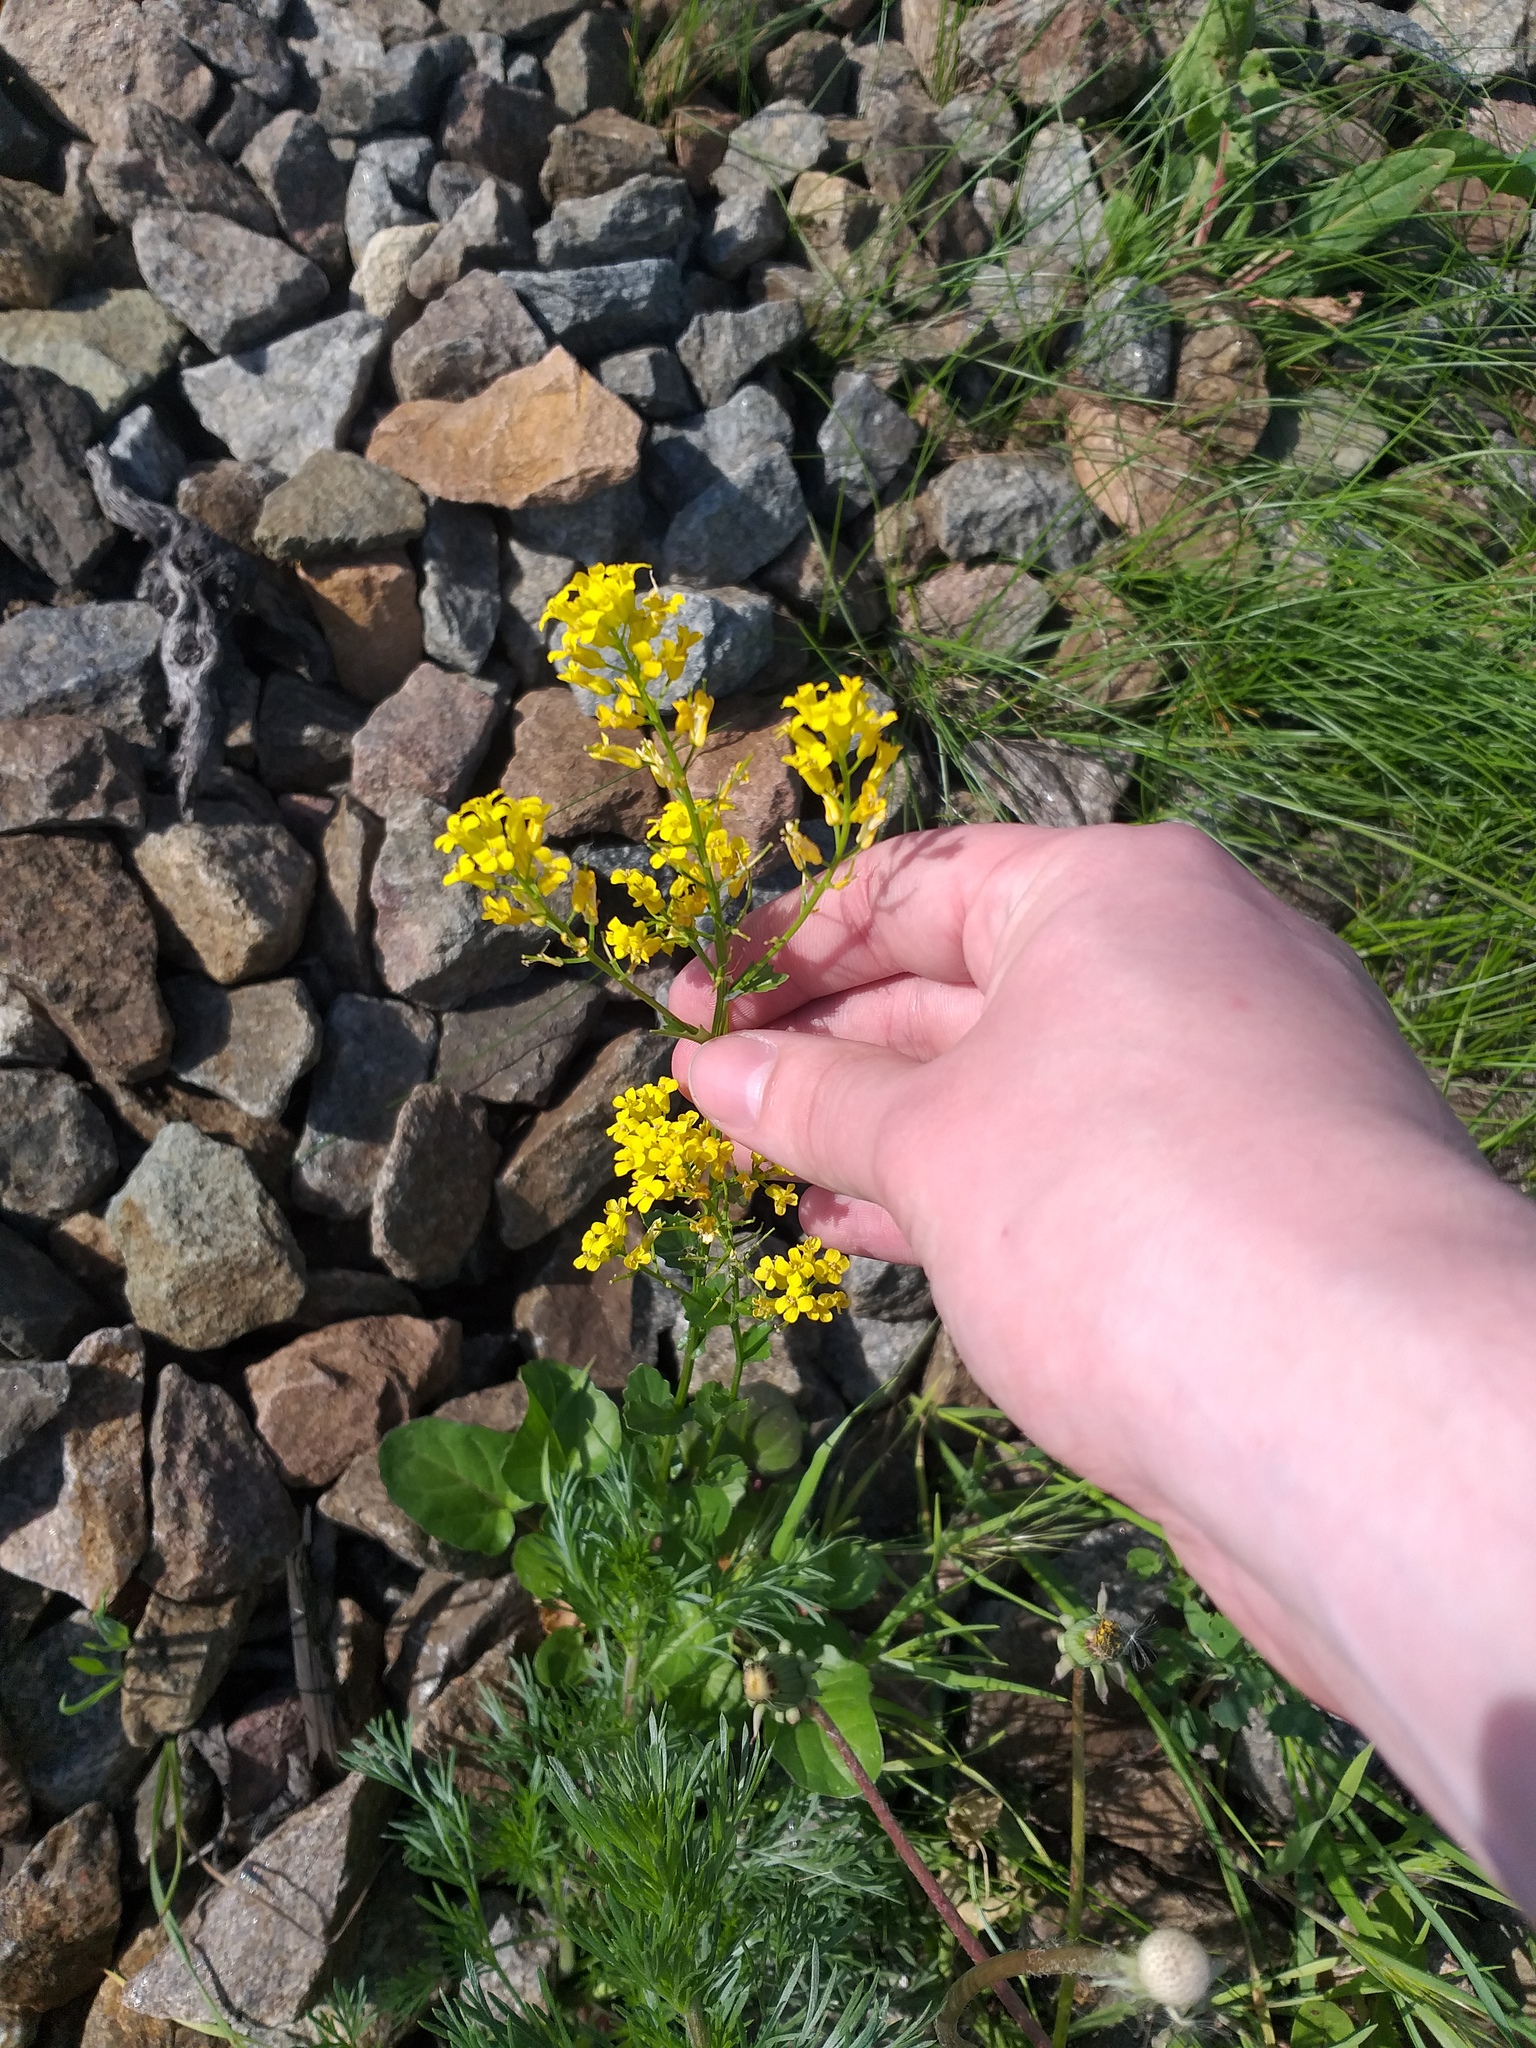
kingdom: Plantae
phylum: Tracheophyta
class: Magnoliopsida
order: Brassicales
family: Brassicaceae
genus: Barbarea
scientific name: Barbarea vulgaris
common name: Cressy-greens
